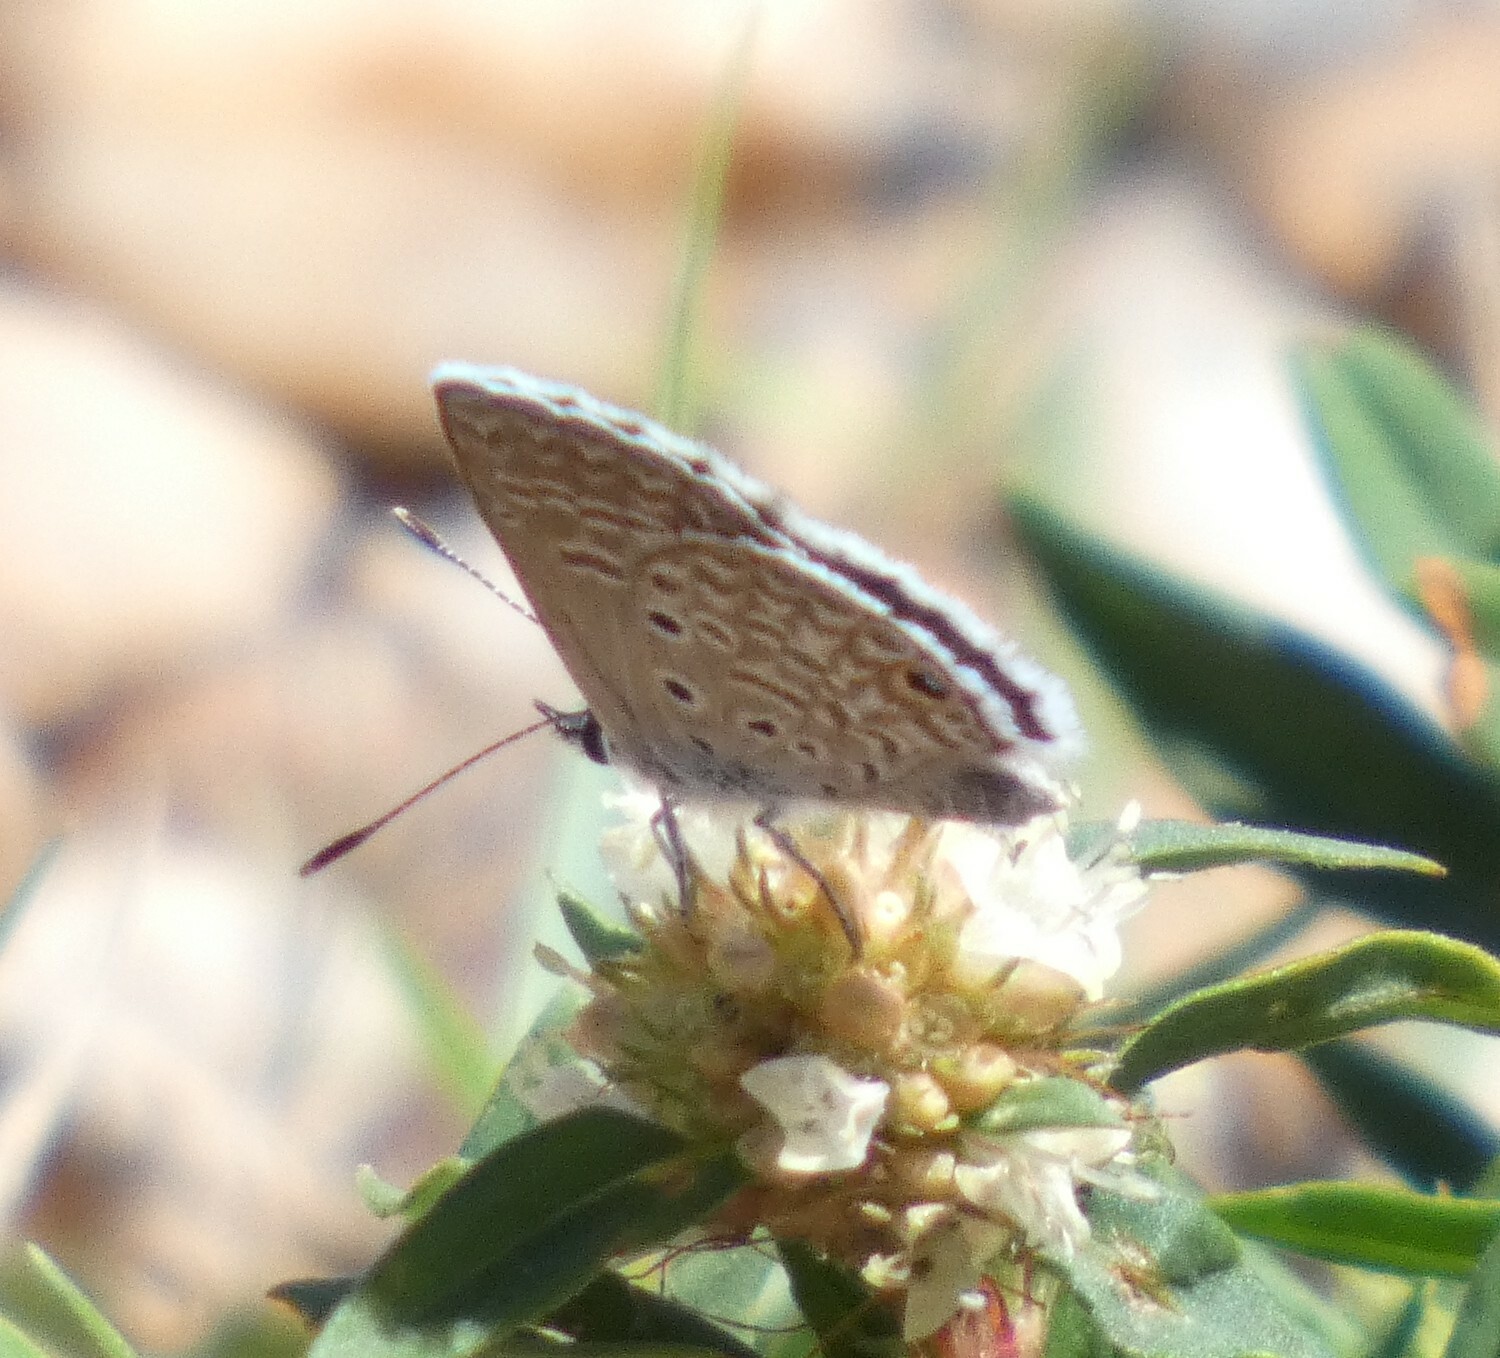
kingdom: Animalia
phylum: Arthropoda
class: Insecta
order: Lepidoptera
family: Lycaenidae
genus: Hemiargus
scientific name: Hemiargus hanno
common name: Common blue
